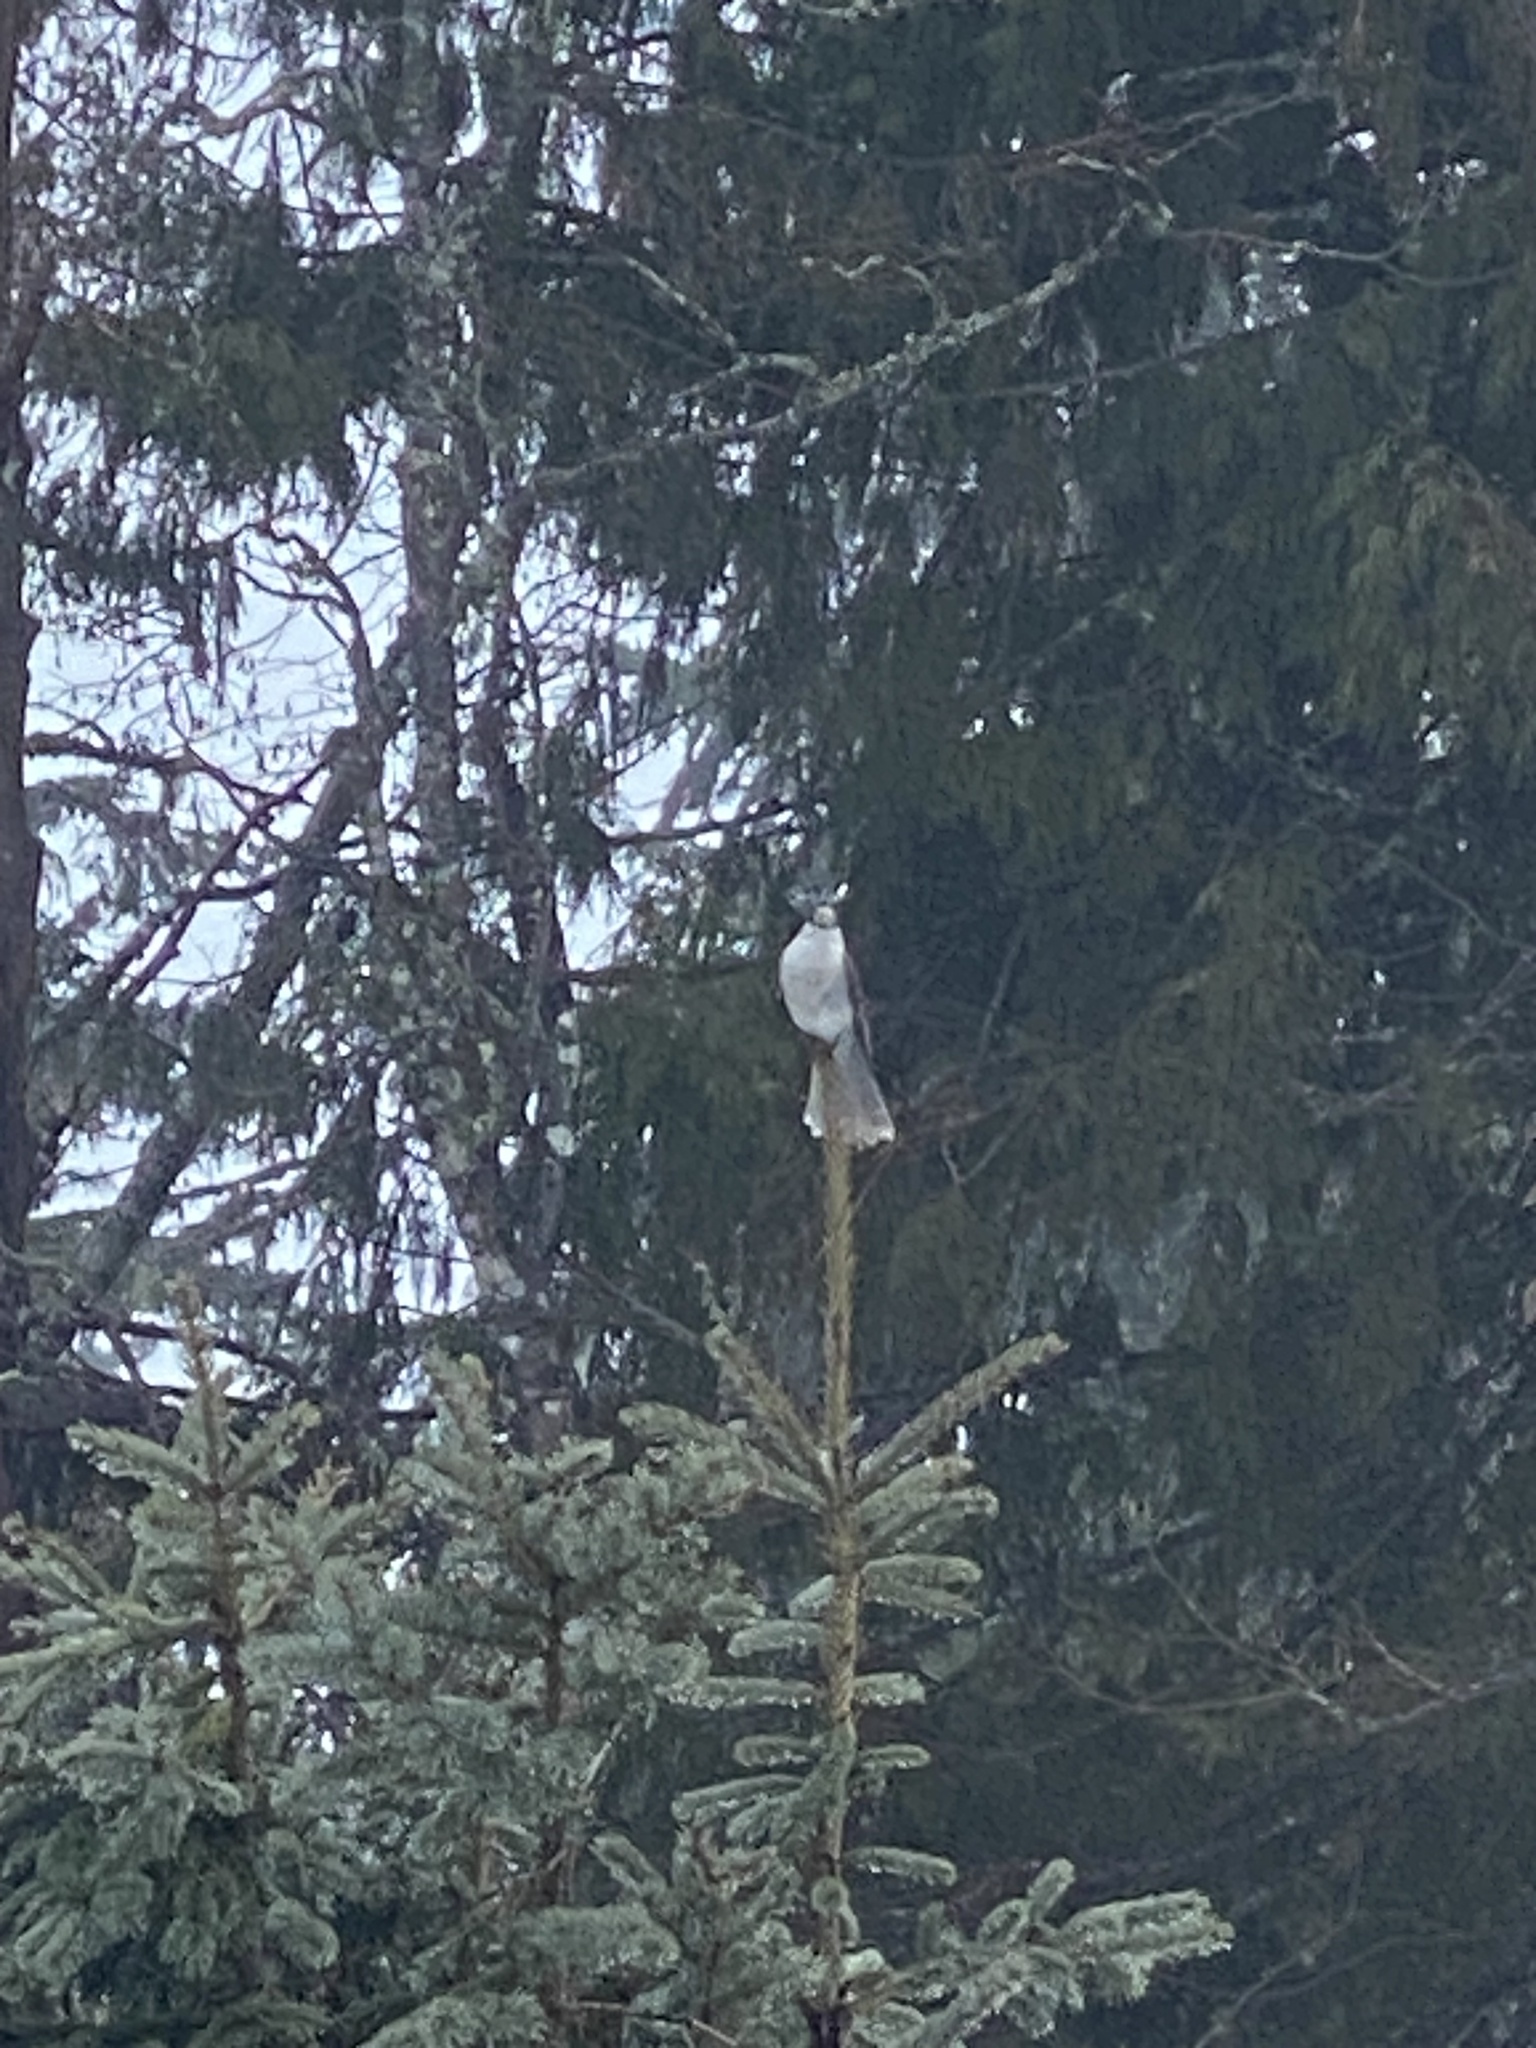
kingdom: Animalia
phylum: Chordata
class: Aves
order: Passeriformes
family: Corvidae
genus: Perisoreus
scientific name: Perisoreus canadensis
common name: Gray jay
